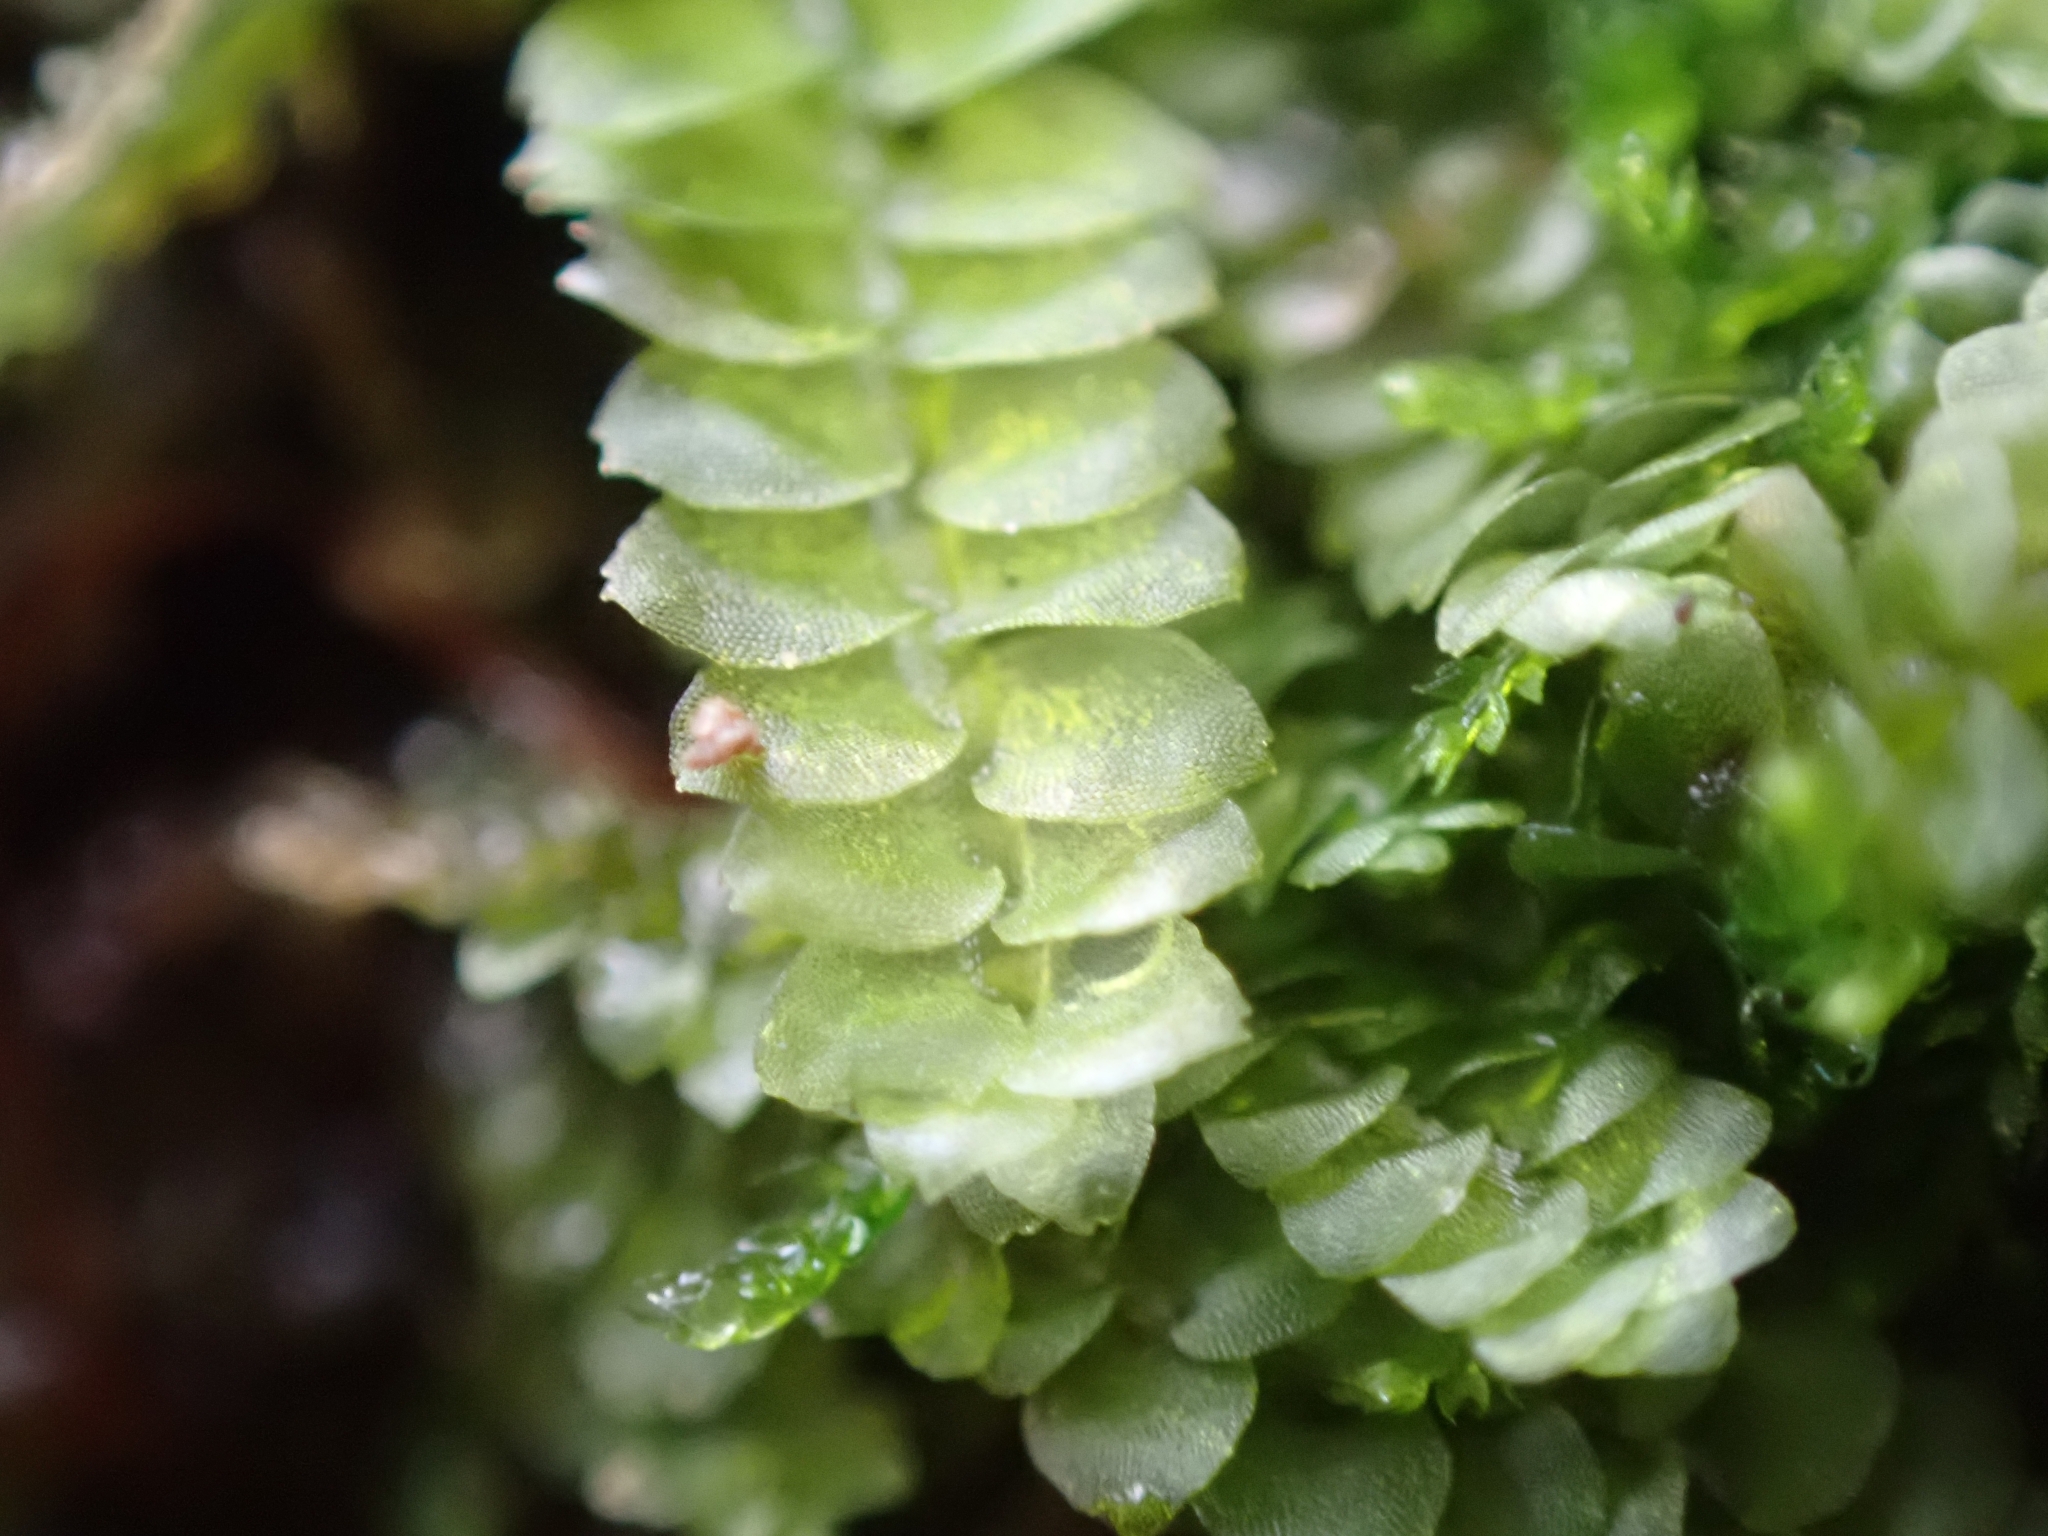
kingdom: Plantae
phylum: Marchantiophyta
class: Jungermanniopsida
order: Jungermanniales
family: Calypogeiaceae
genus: Calypogeia
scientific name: Calypogeia fissa
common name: Common pouchwort
